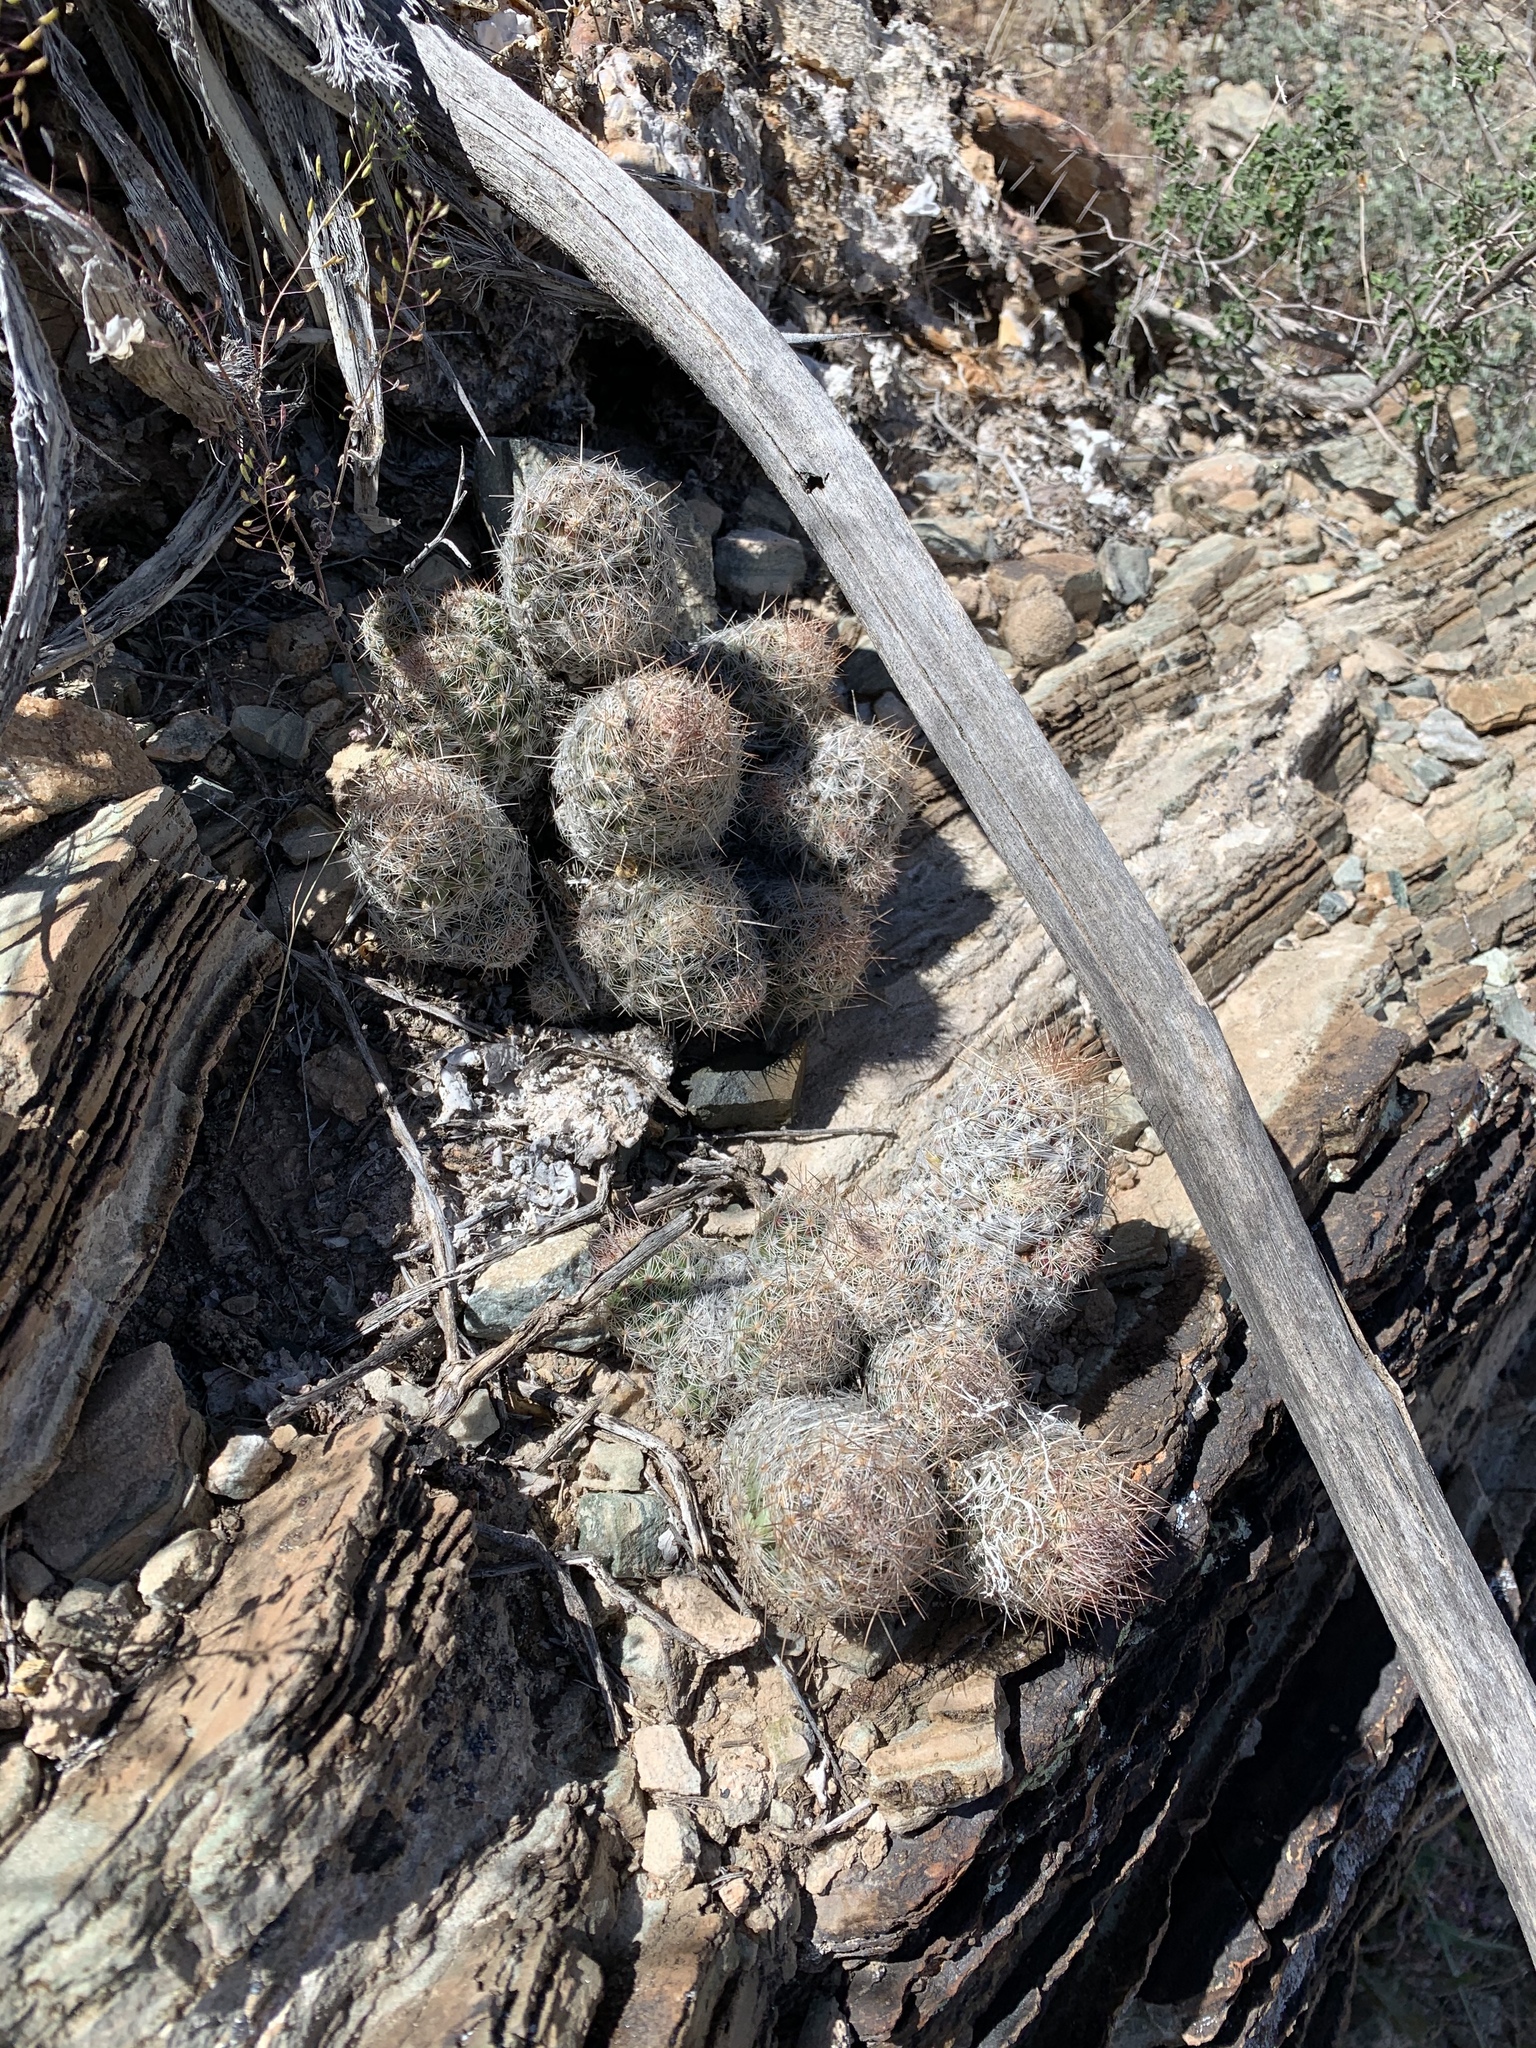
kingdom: Plantae
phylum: Tracheophyta
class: Magnoliopsida
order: Caryophyllales
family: Cactaceae
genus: Pelecyphora
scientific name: Pelecyphora tuberculosa
